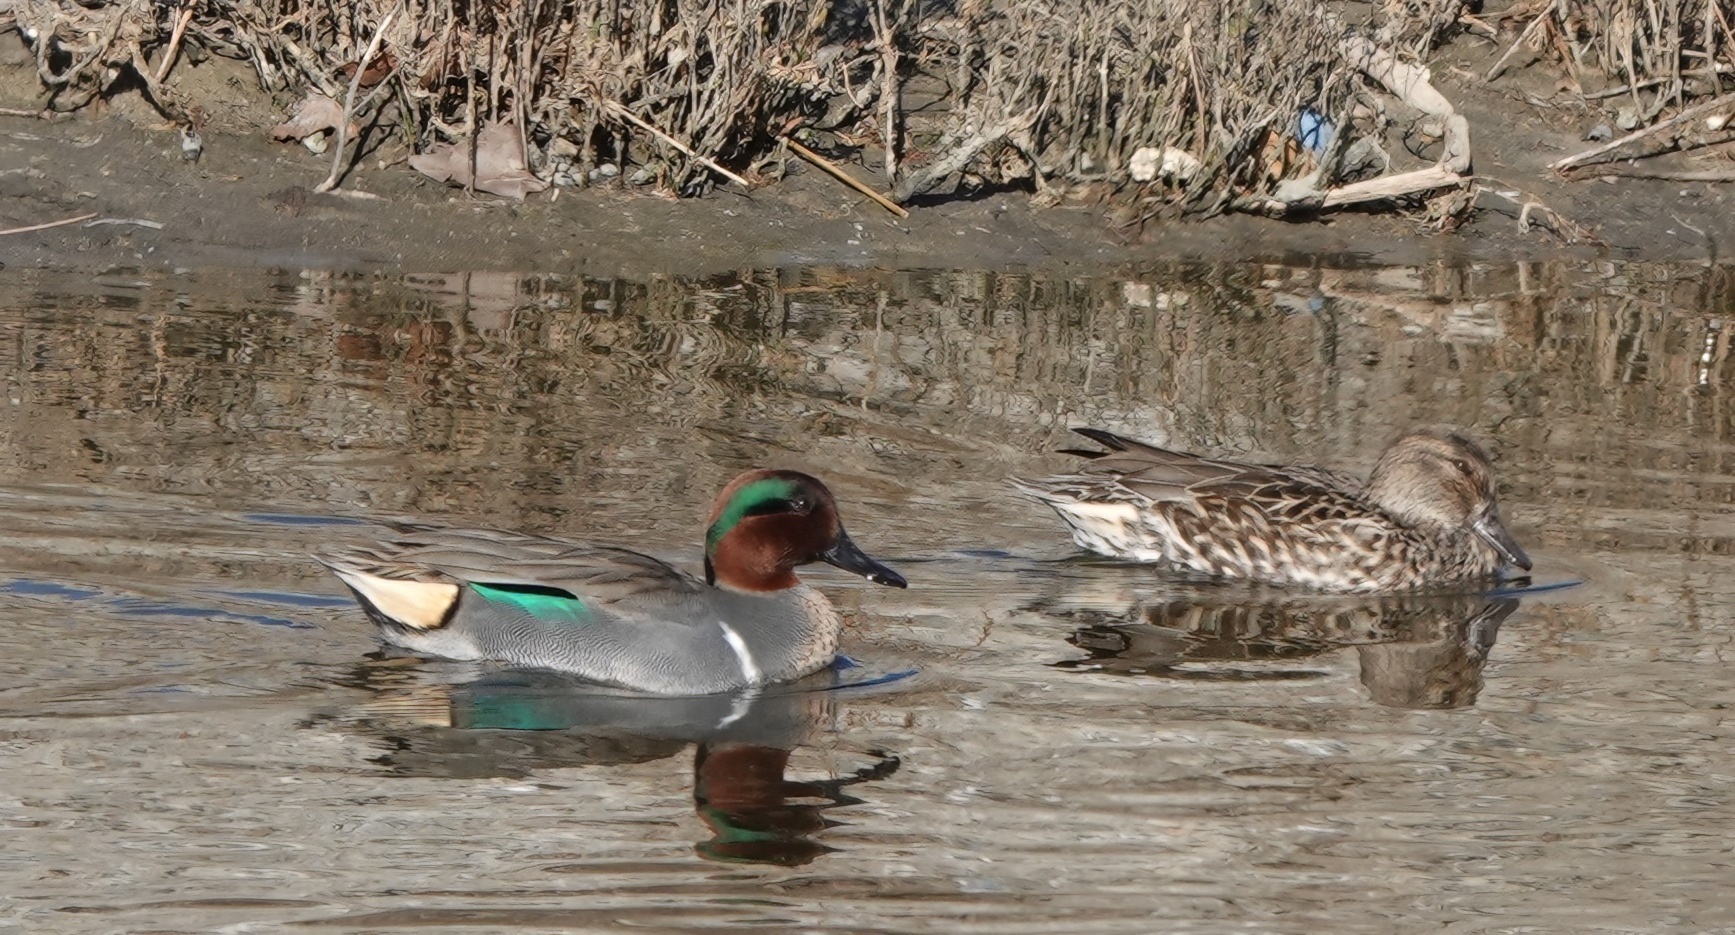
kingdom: Animalia
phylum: Chordata
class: Aves
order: Anseriformes
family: Anatidae
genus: Anas
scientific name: Anas crecca
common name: Eurasian teal
